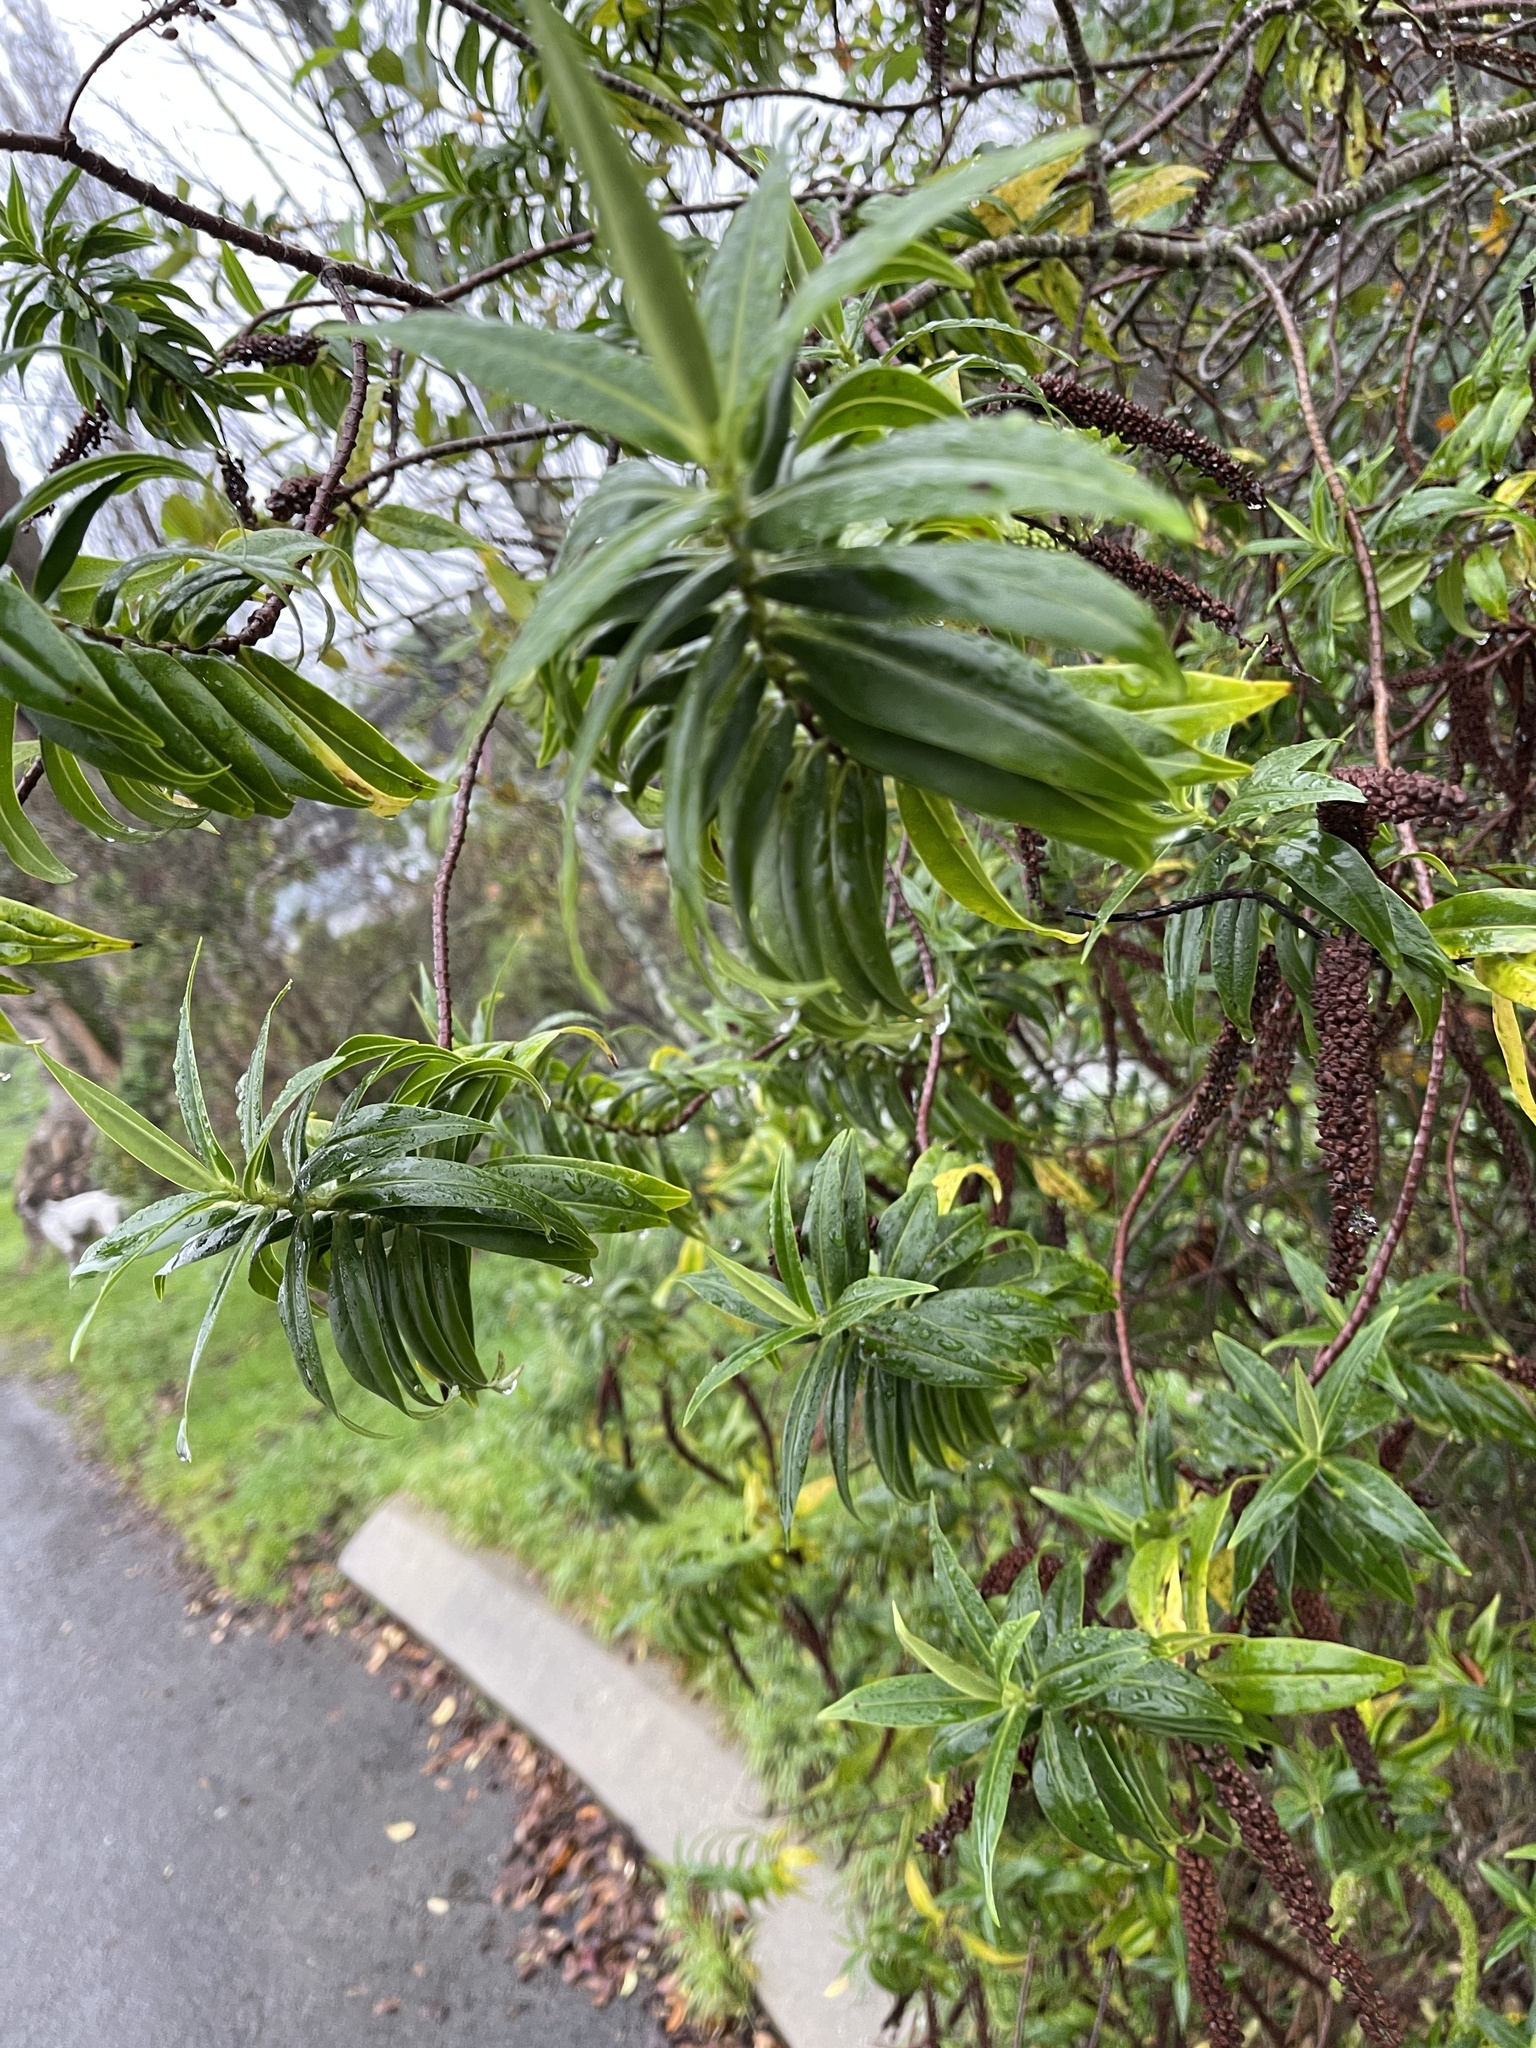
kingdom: Plantae
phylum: Tracheophyta
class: Magnoliopsida
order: Lamiales
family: Plantaginaceae
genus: Veronica
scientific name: Veronica salicifolia
